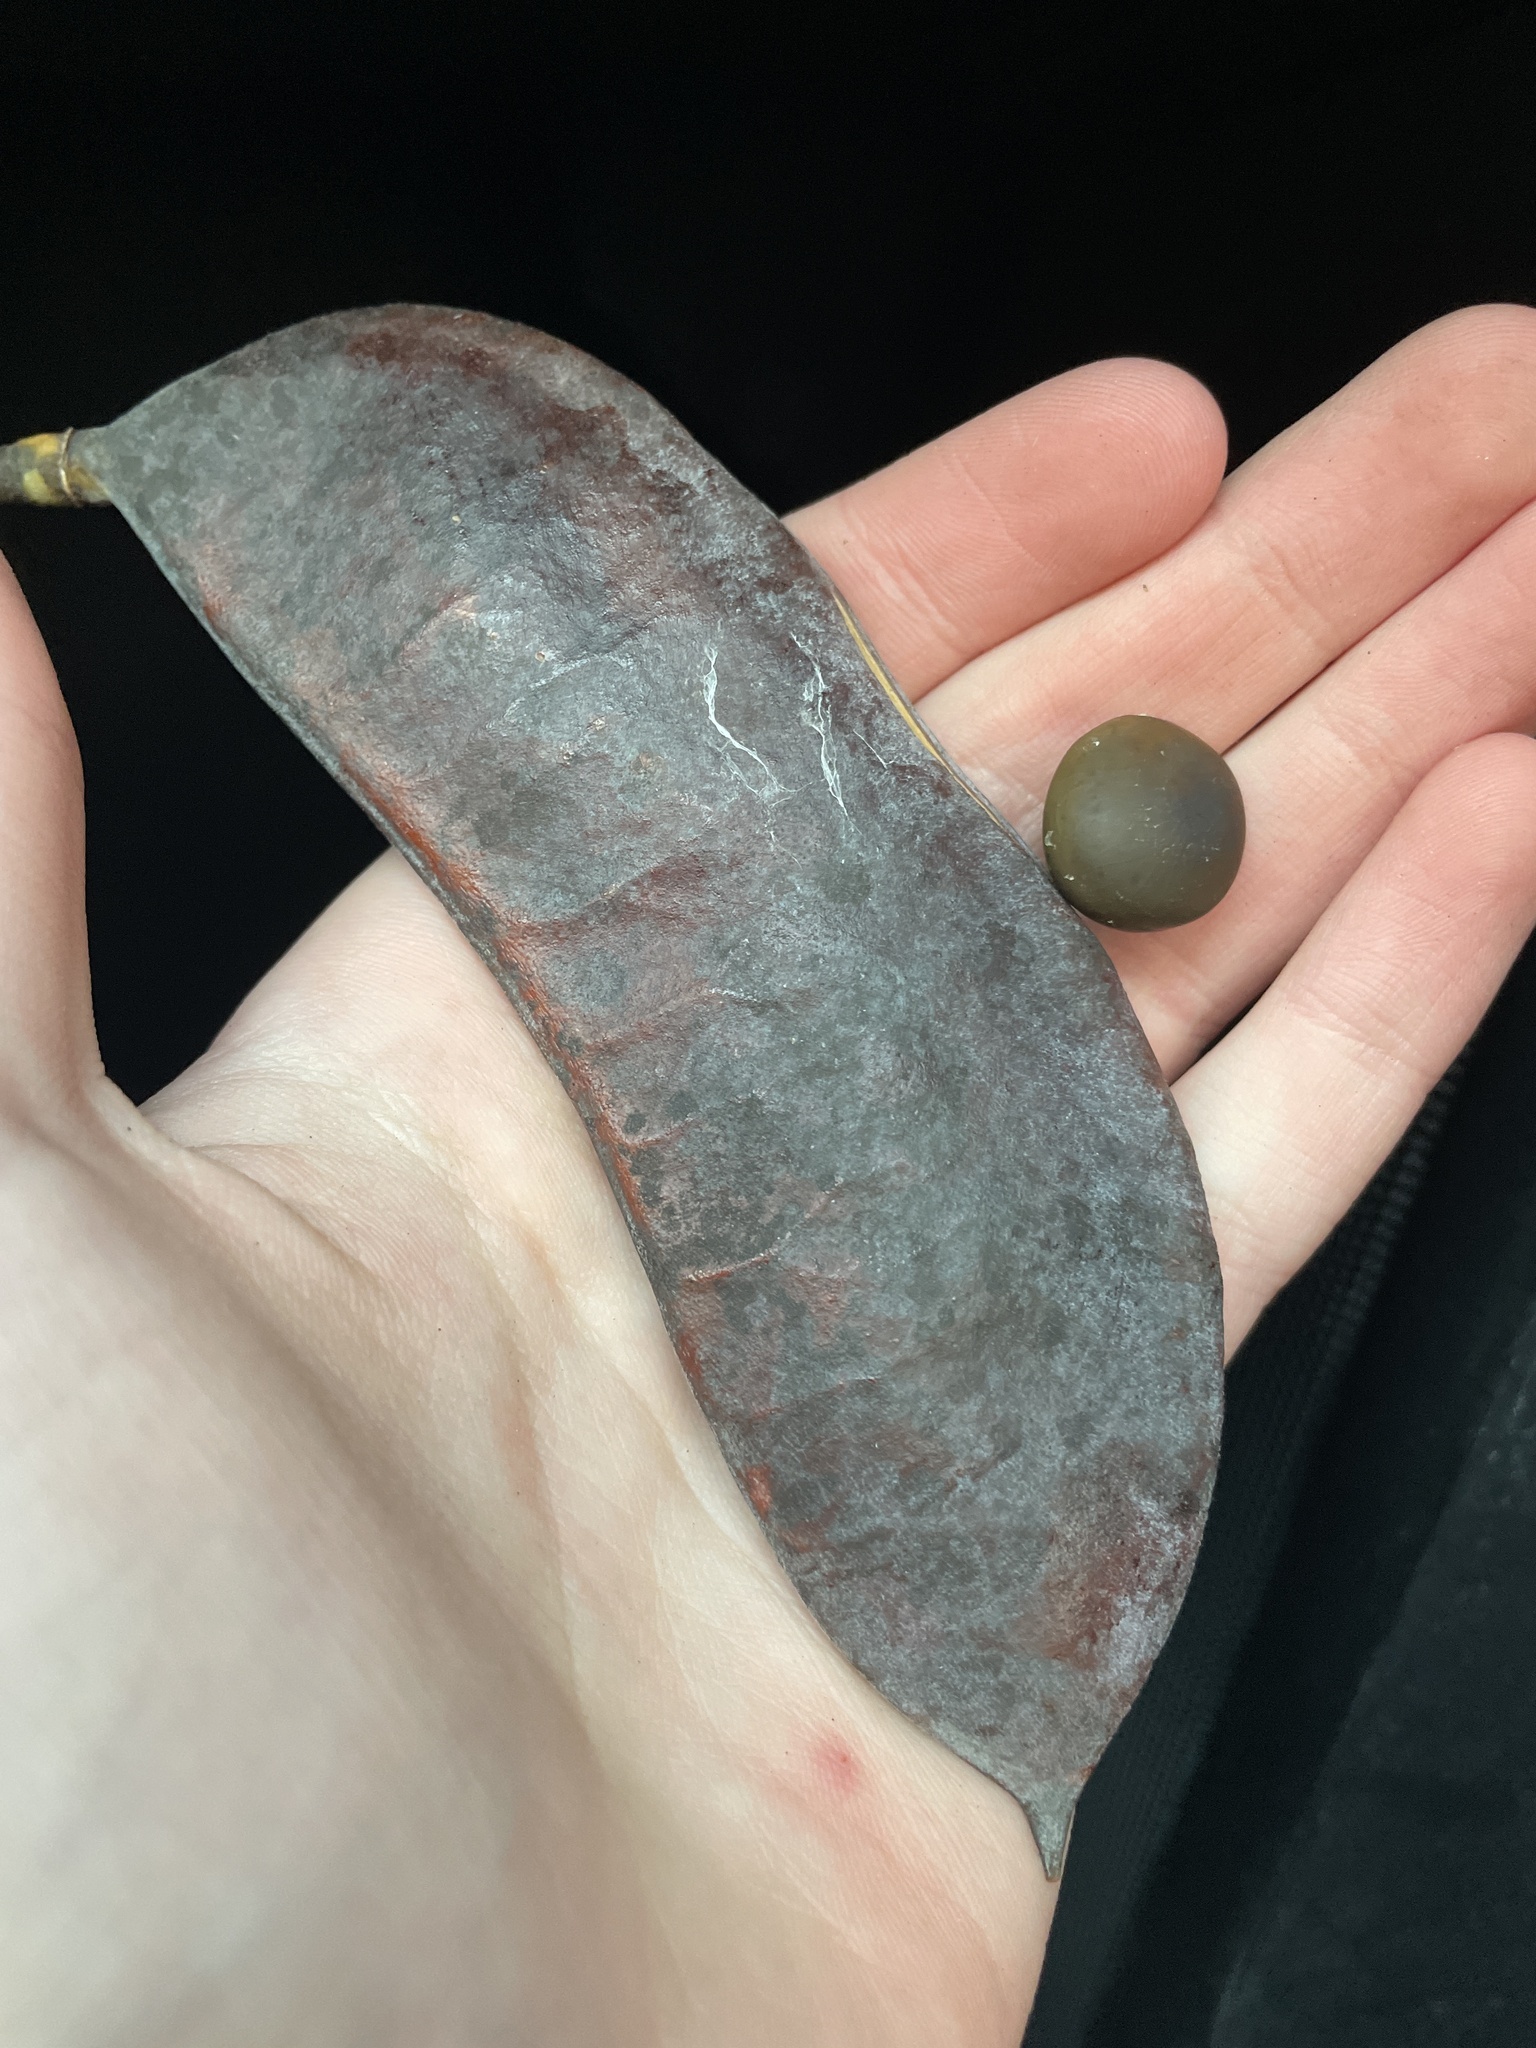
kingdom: Plantae
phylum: Tracheophyta
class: Magnoliopsida
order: Fabales
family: Fabaceae
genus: Gymnocladus
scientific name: Gymnocladus dioicus
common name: Kentucky coffee-tree
